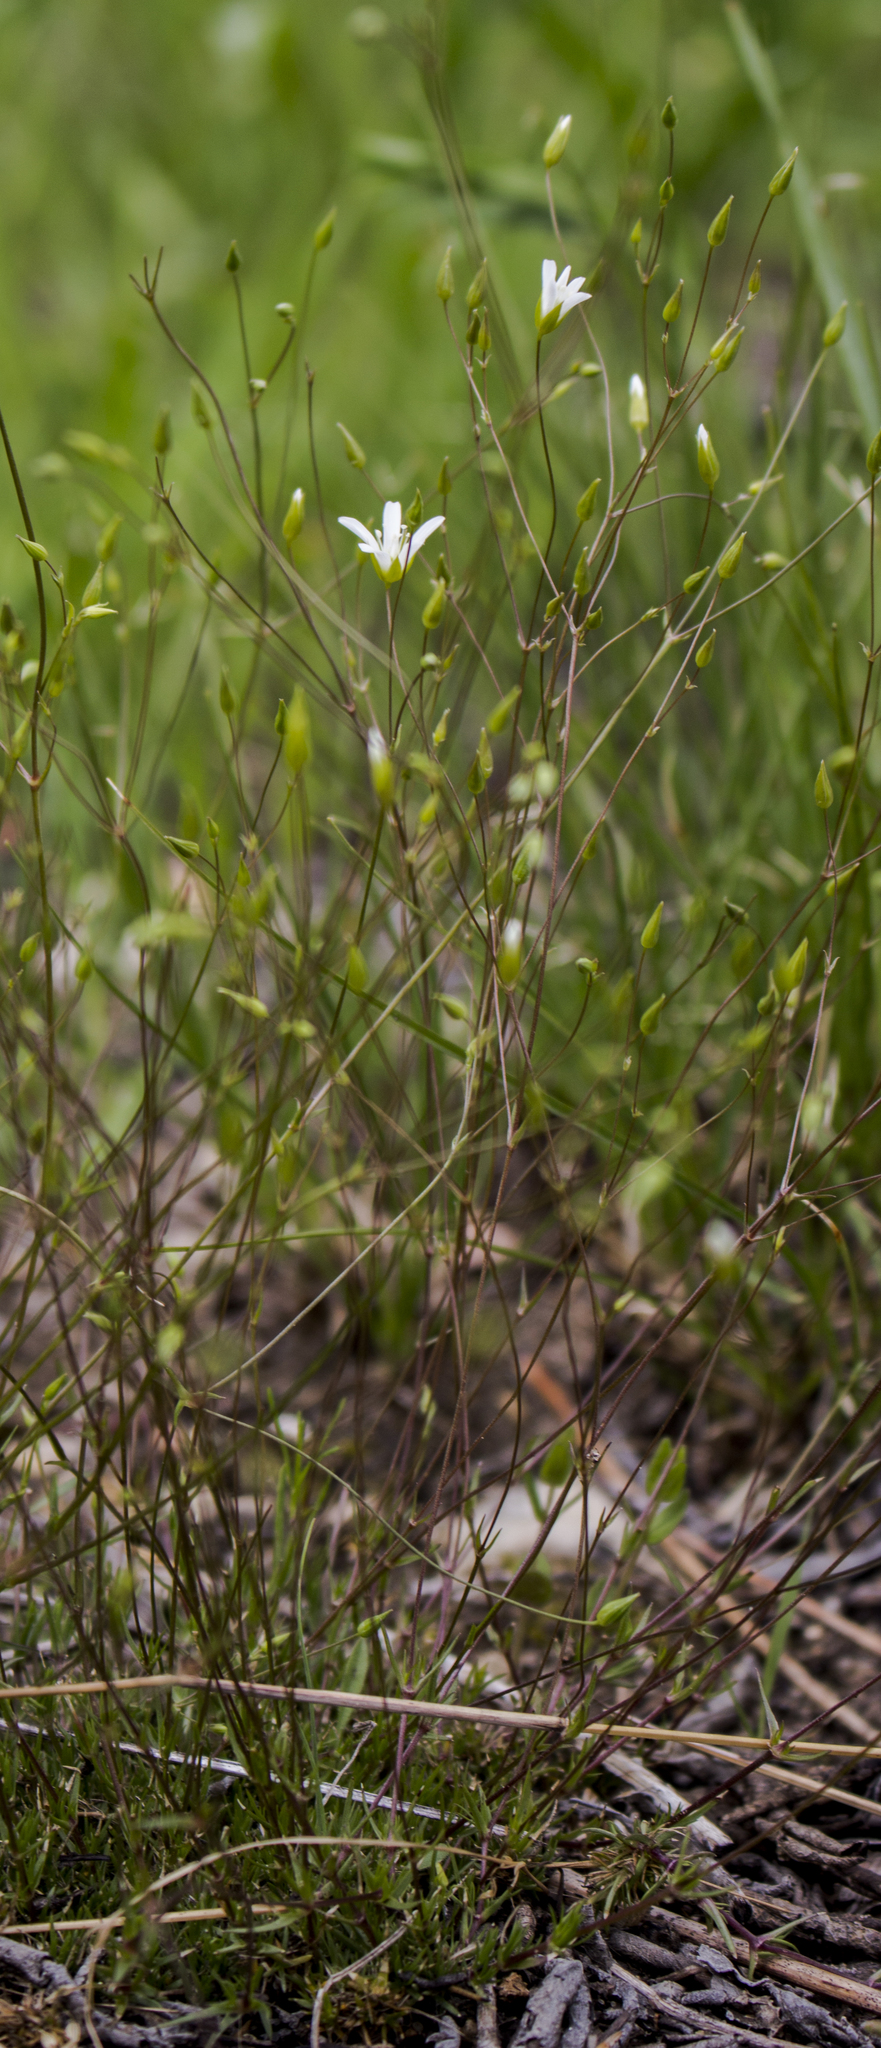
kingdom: Plantae
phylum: Tracheophyta
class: Magnoliopsida
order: Caryophyllales
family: Caryophyllaceae
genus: Sabulina
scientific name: Sabulina michauxii
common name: Michaux's stitchwort
